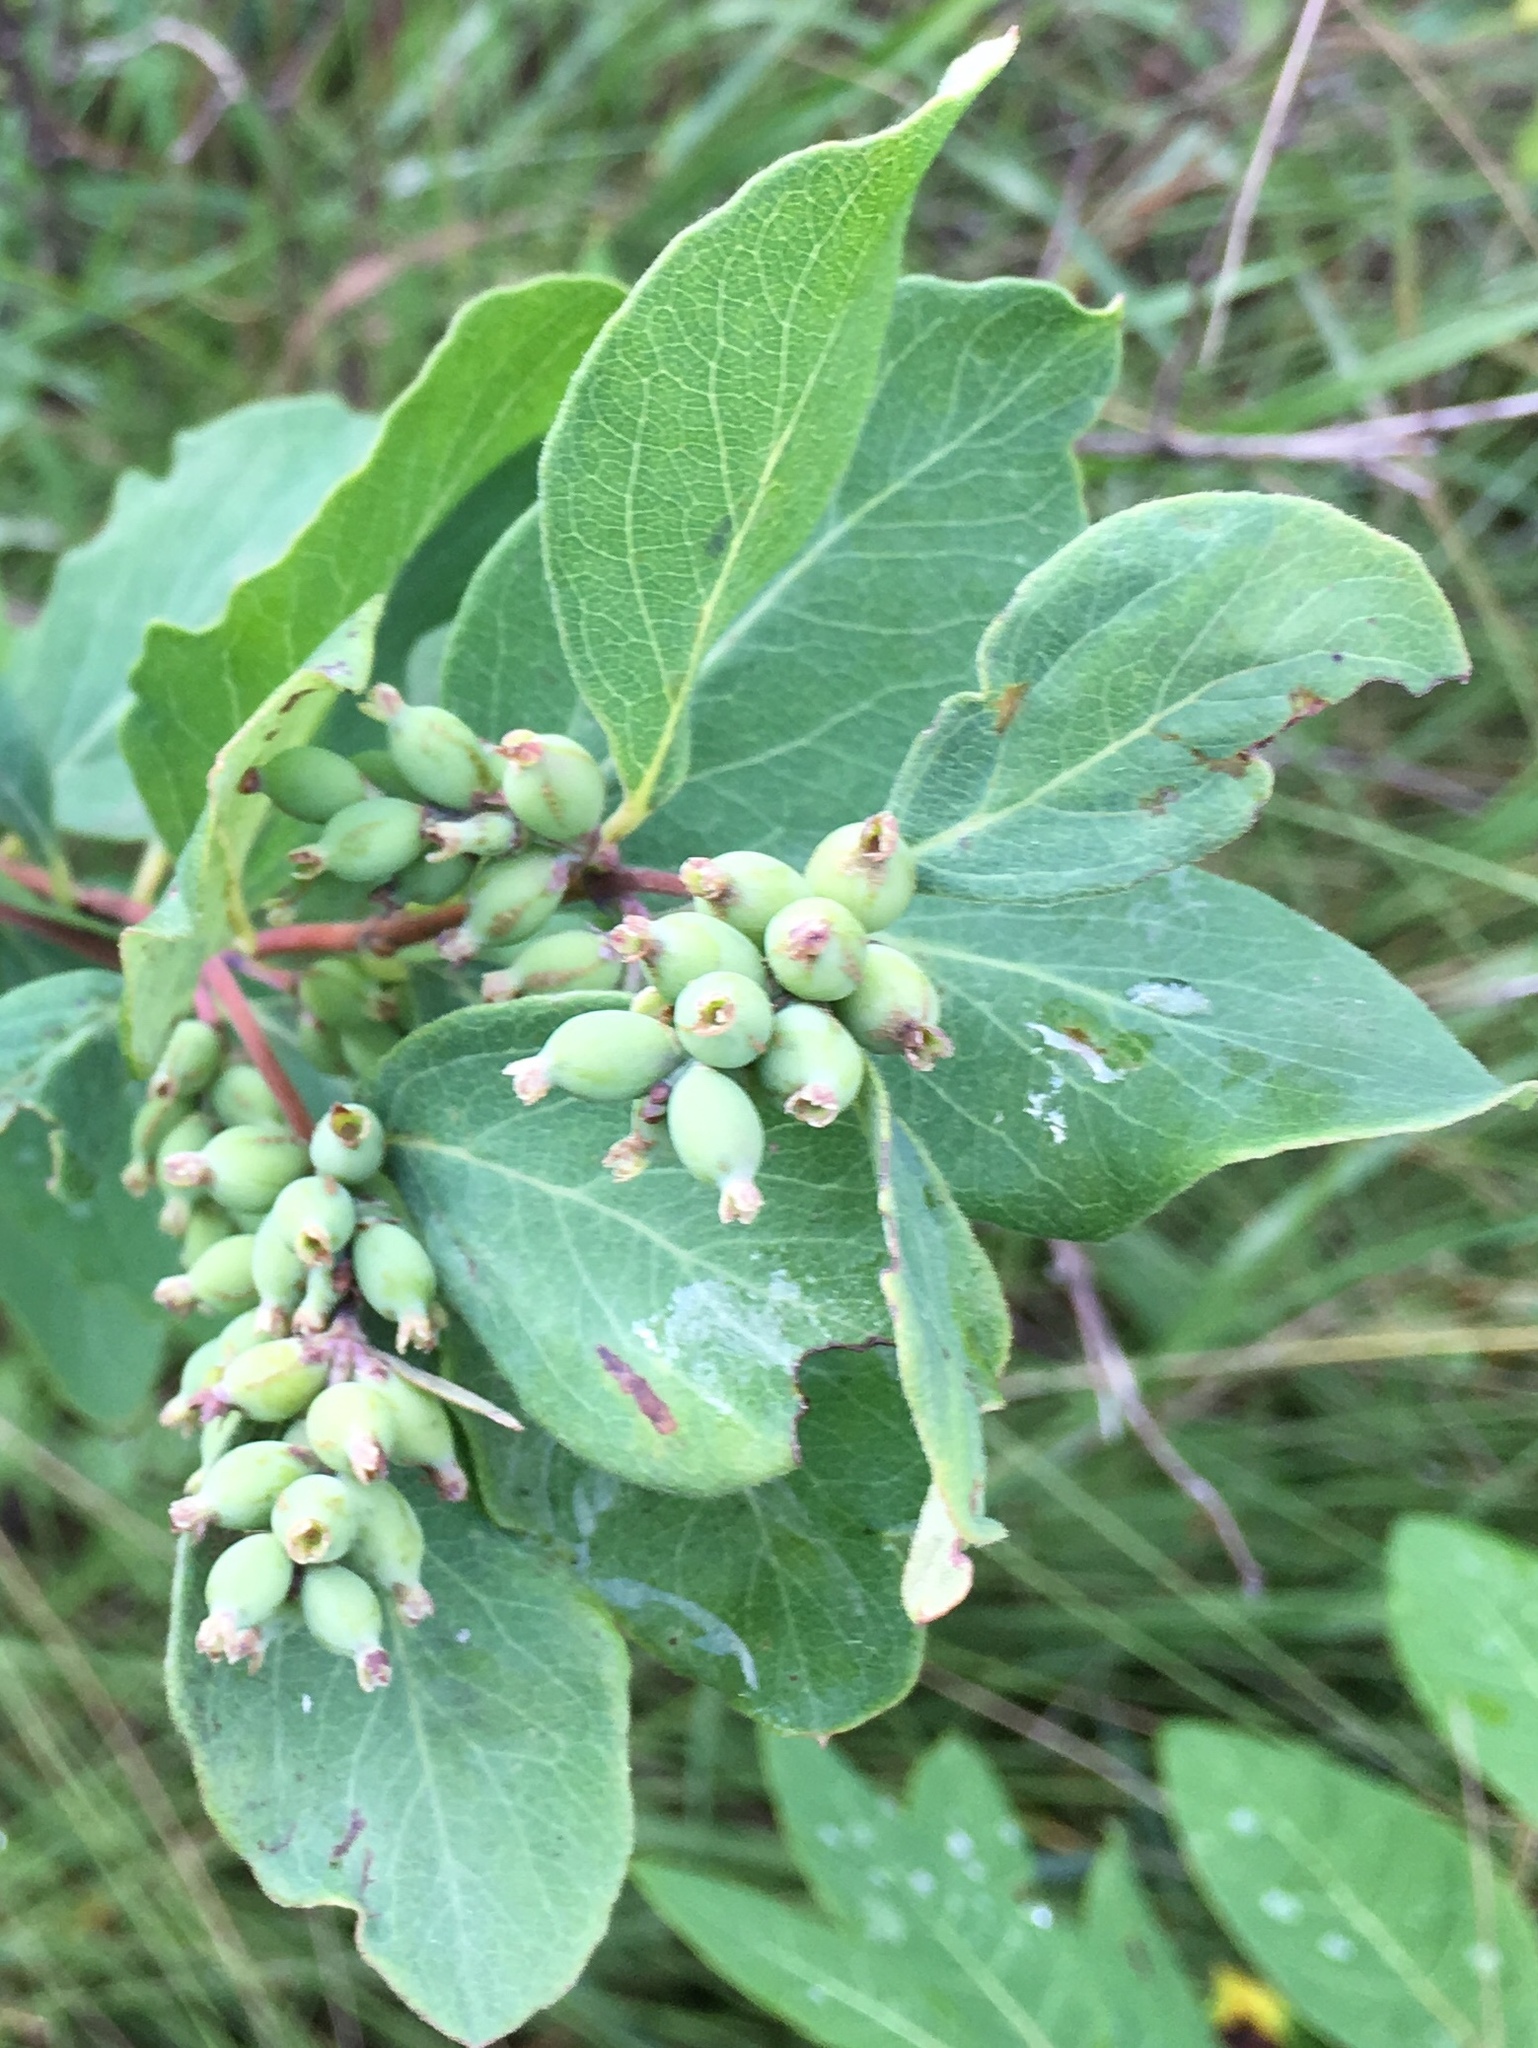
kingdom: Plantae
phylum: Tracheophyta
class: Magnoliopsida
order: Dipsacales
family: Caprifoliaceae
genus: Symphoricarpos
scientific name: Symphoricarpos occidentalis
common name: Wolfberry
